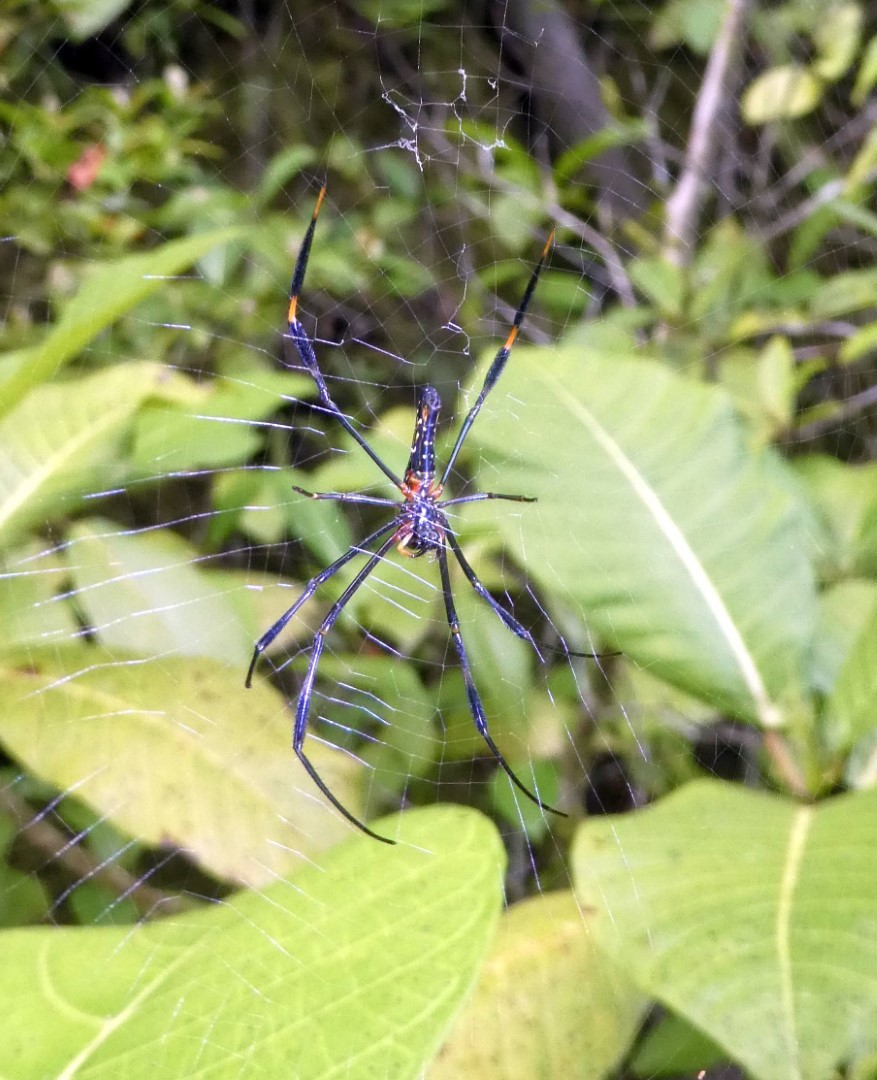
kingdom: Animalia
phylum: Arthropoda
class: Arachnida
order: Araneae
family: Araneidae
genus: Nephila
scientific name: Nephila pilipes
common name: Giant golden orb weaver
